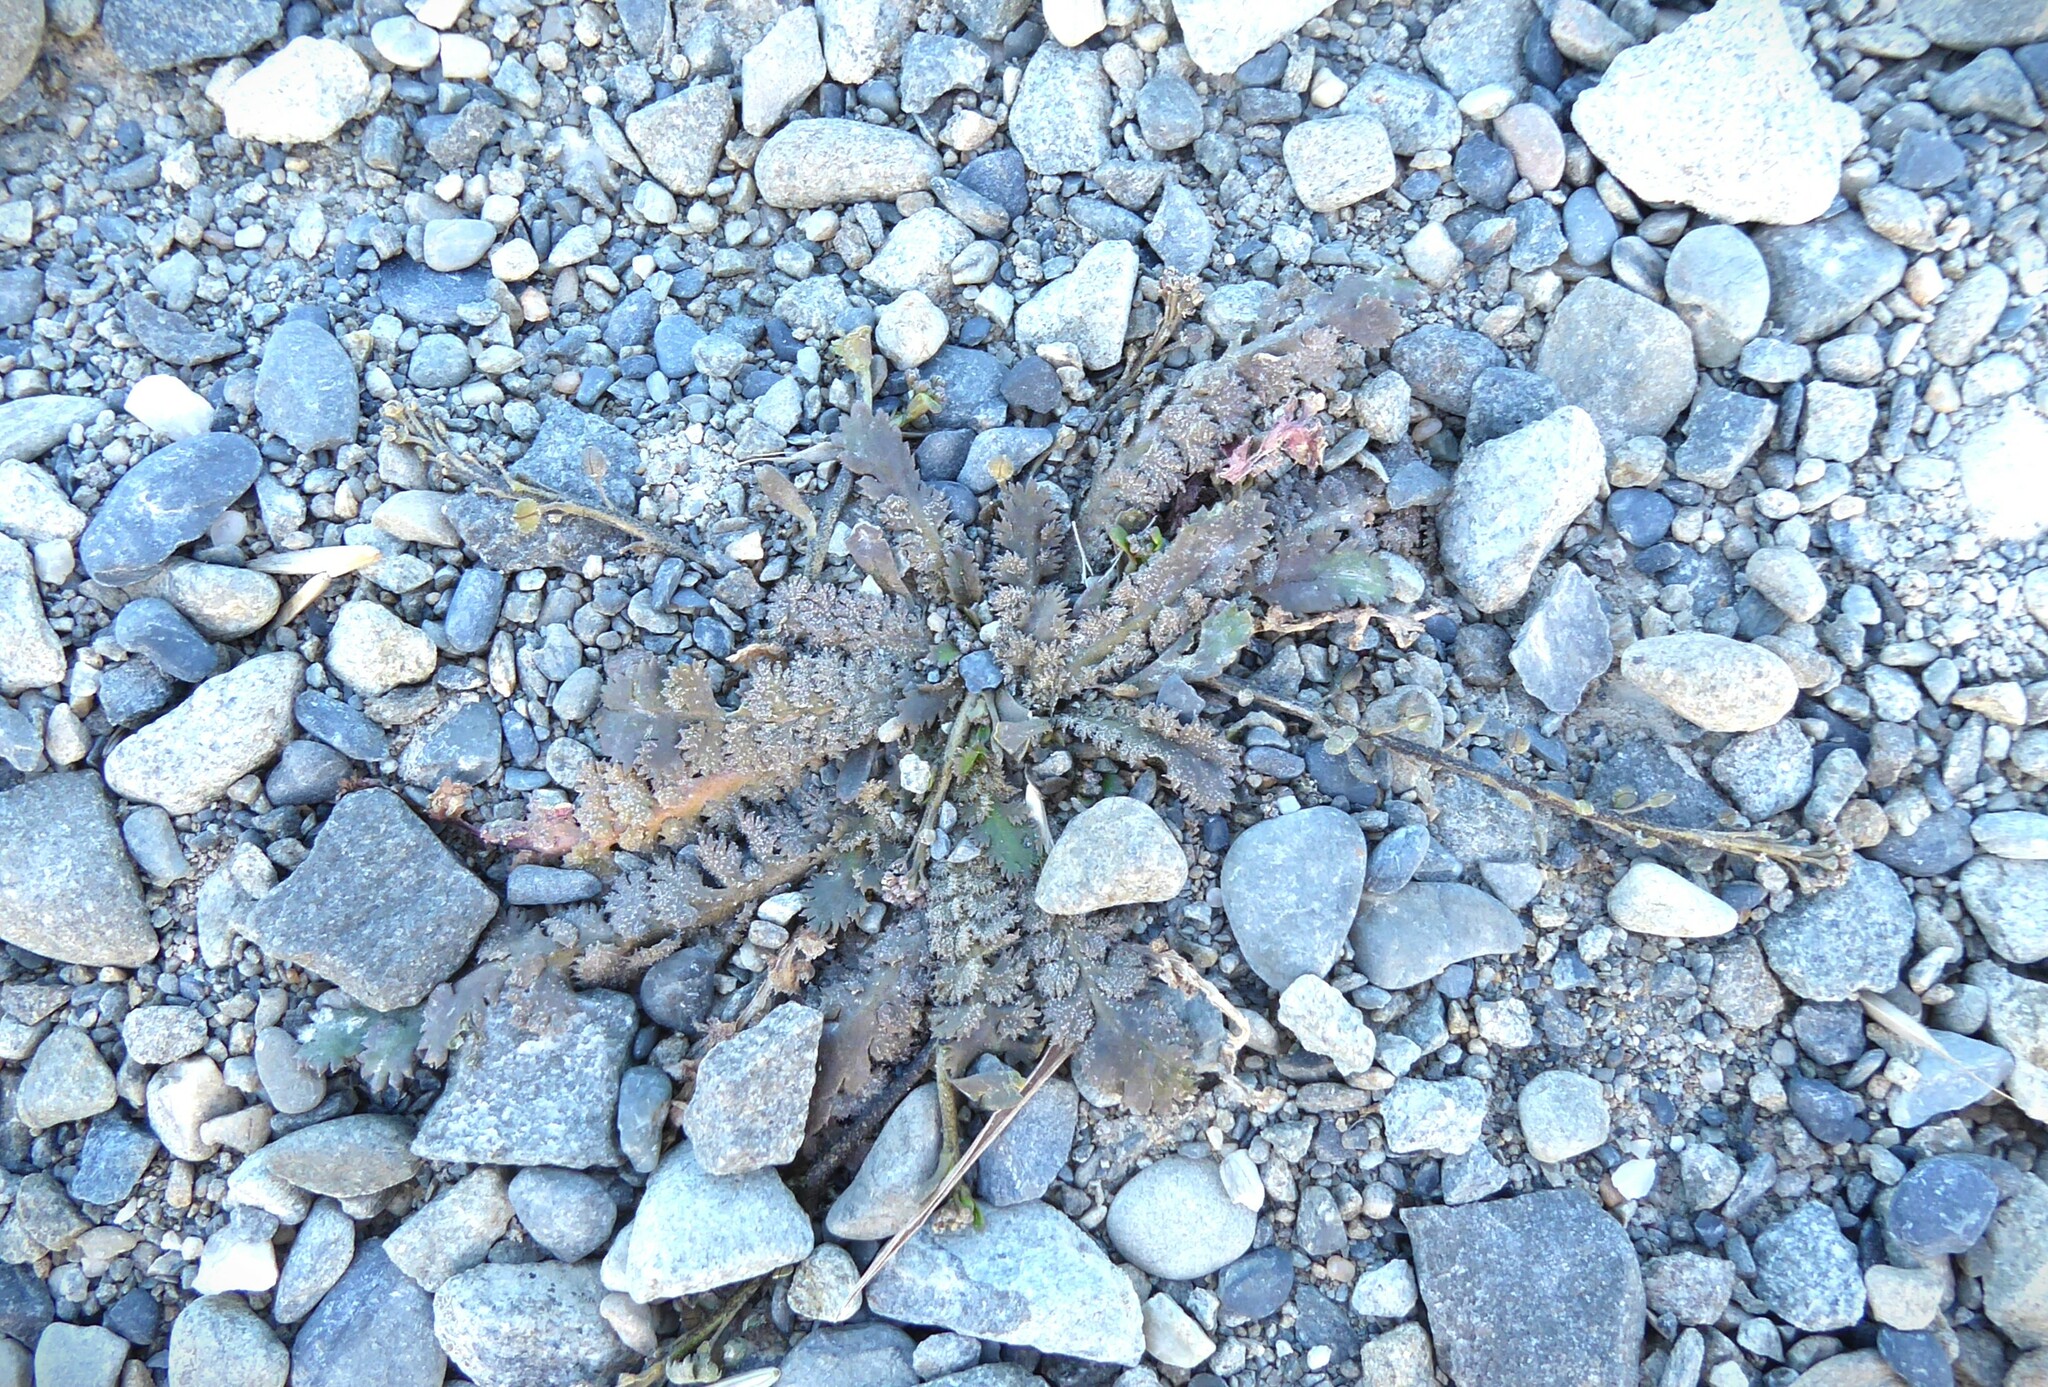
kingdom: Plantae
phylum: Tracheophyta
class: Magnoliopsida
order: Brassicales
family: Brassicaceae
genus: Lepidium
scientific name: Lepidium tenuicaule
